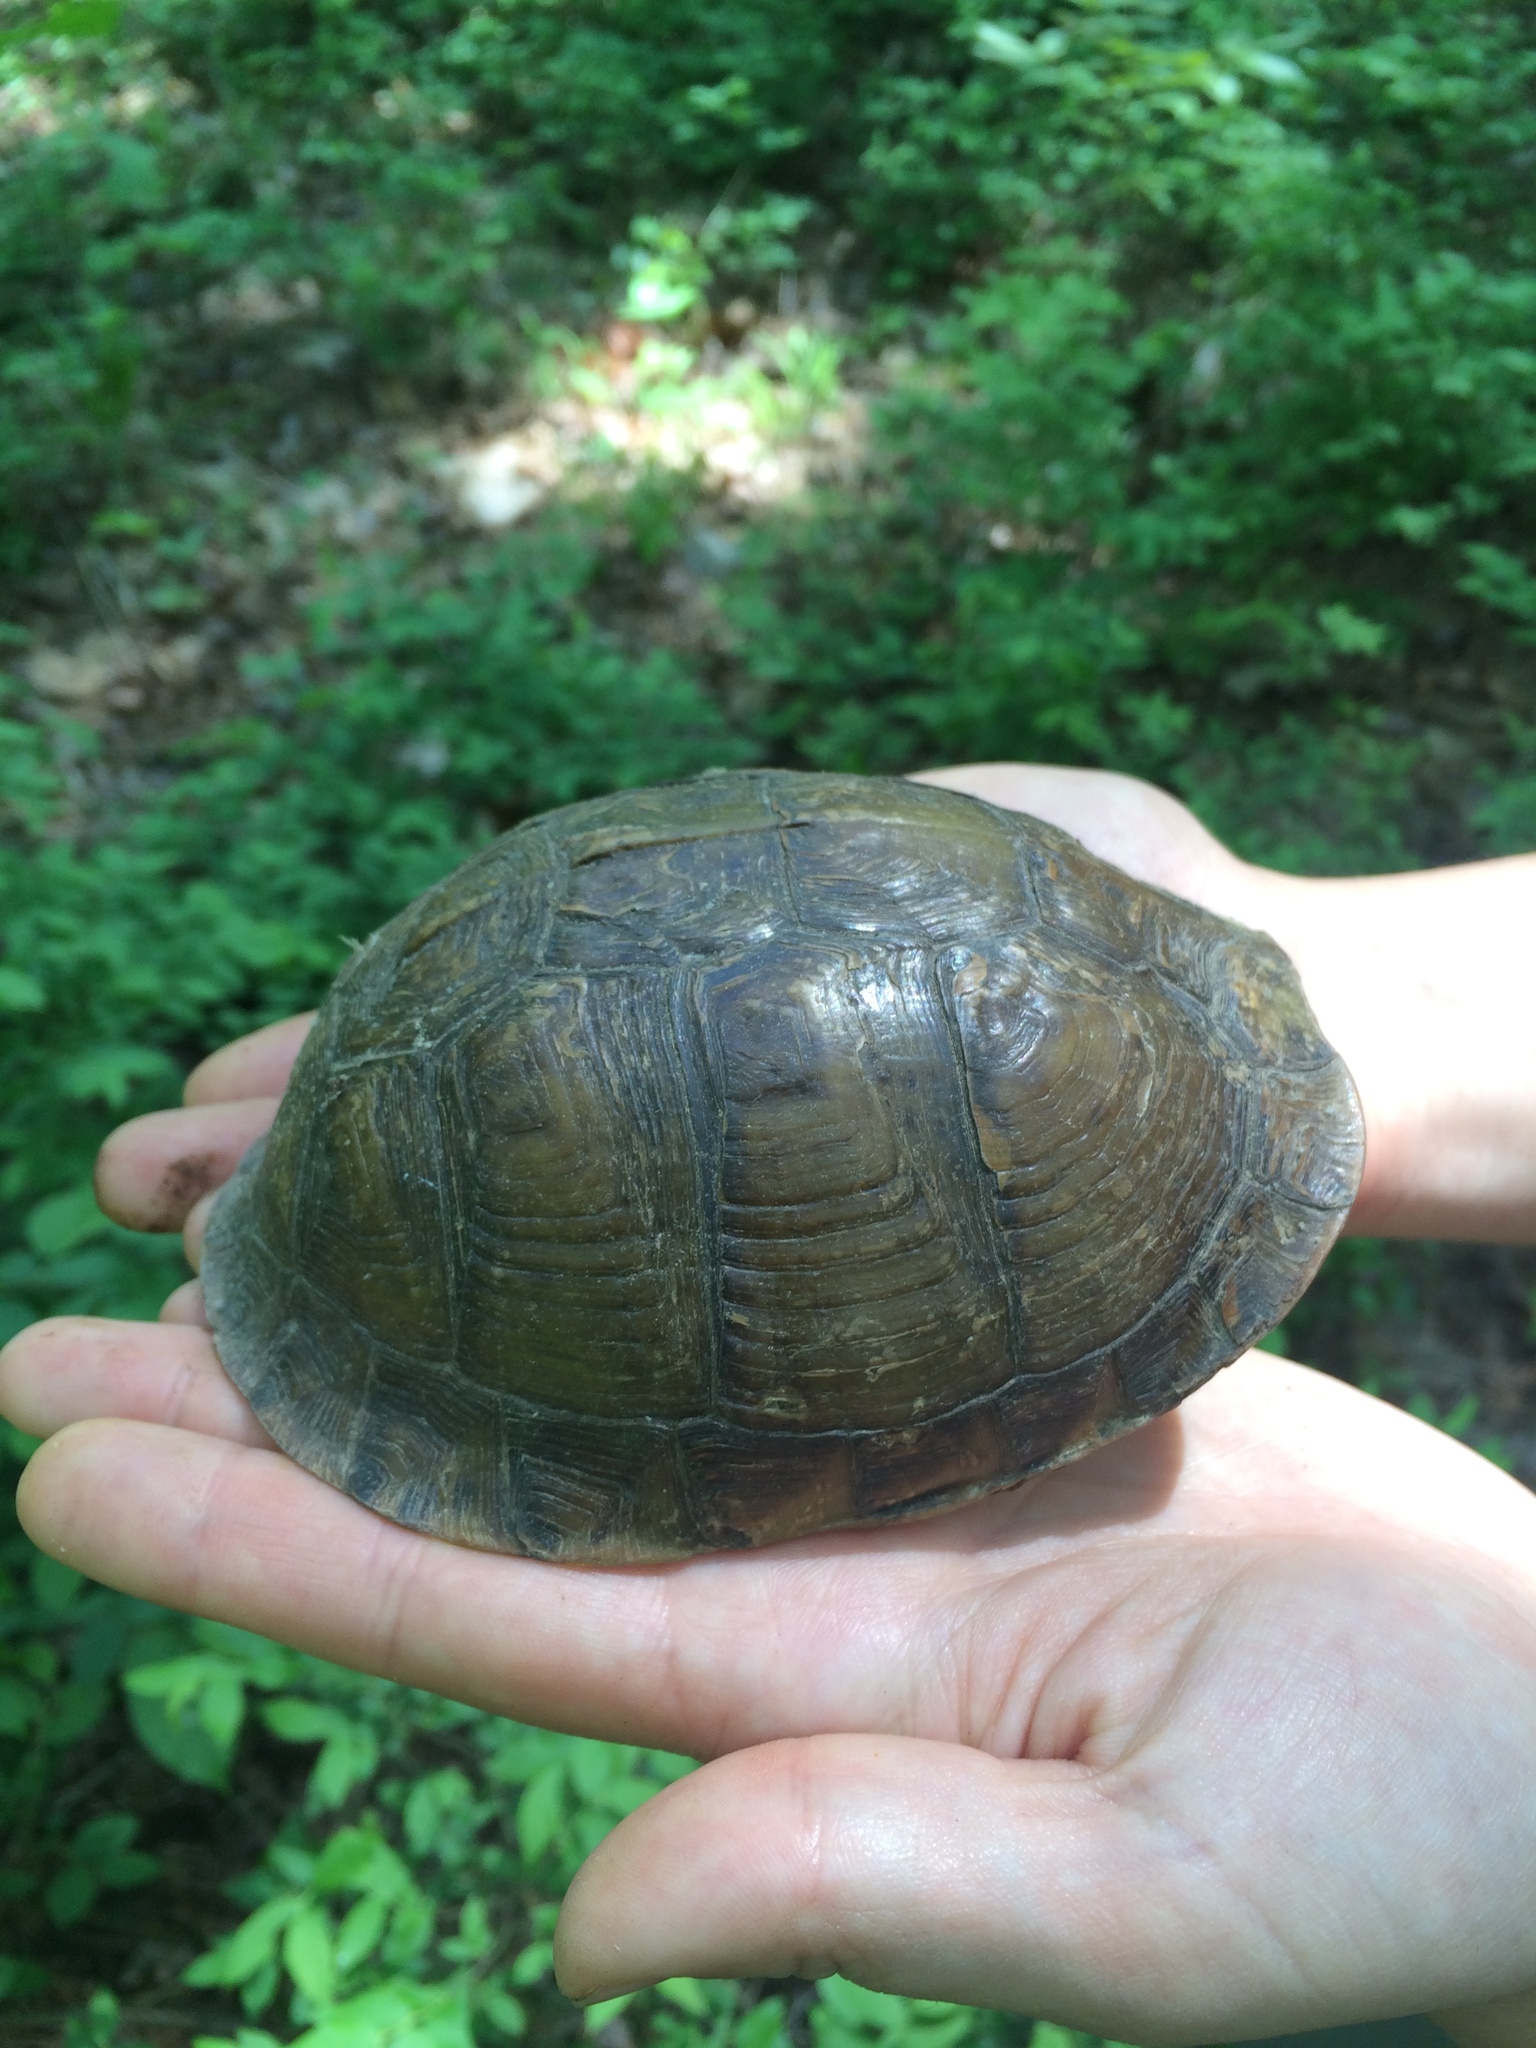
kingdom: Animalia
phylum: Chordata
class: Testudines
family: Emydidae
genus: Terrapene
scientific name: Terrapene carolina
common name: Common box turtle
